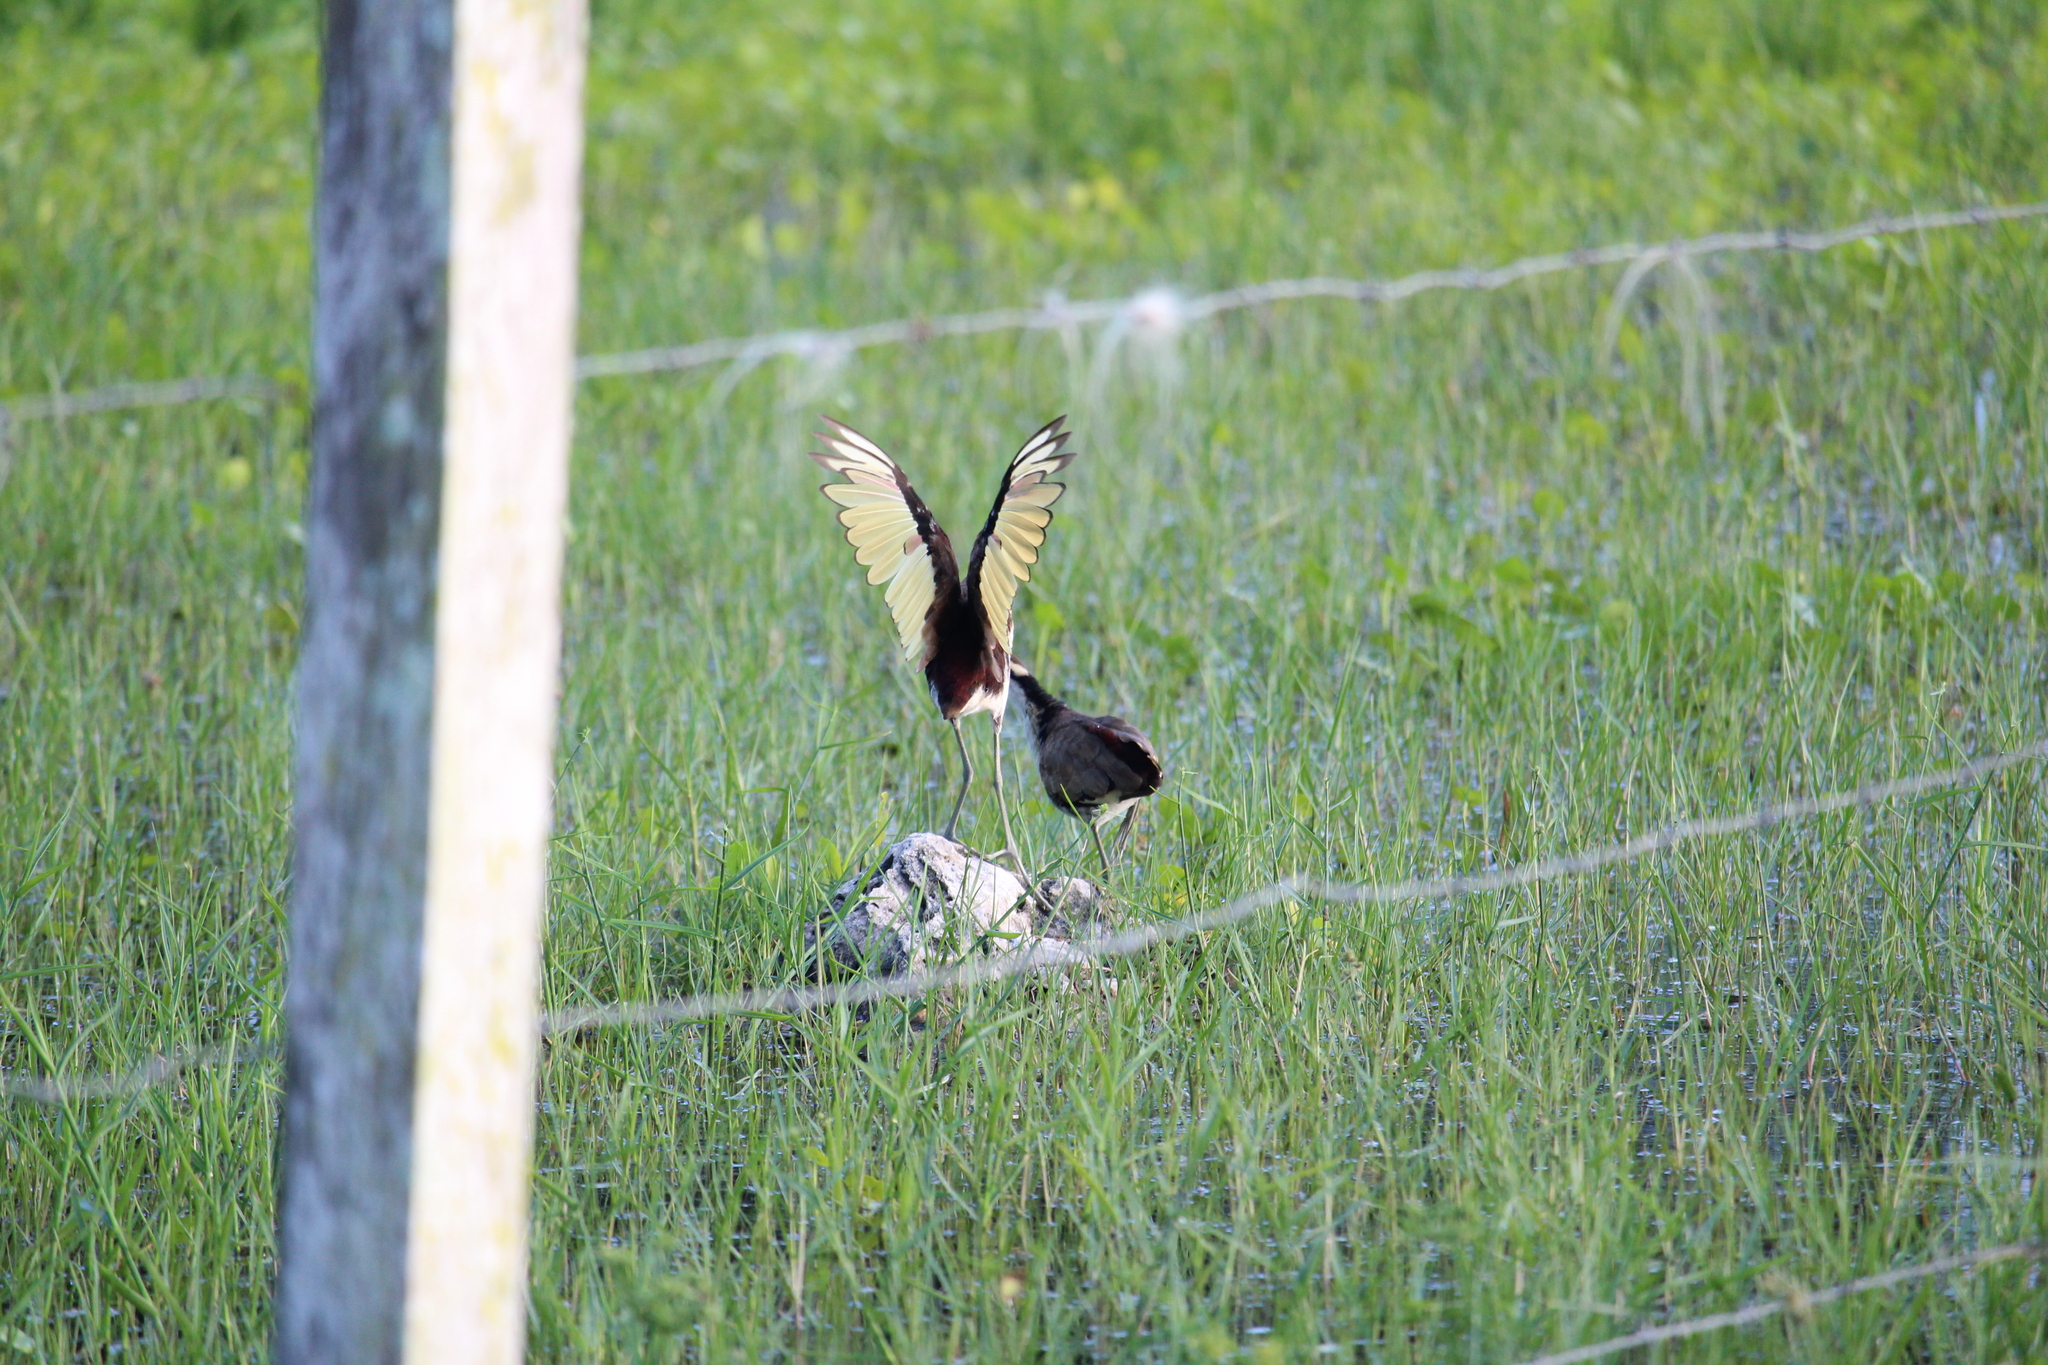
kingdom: Animalia
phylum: Chordata
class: Aves
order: Charadriiformes
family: Jacanidae
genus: Jacana
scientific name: Jacana spinosa
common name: Northern jacana
